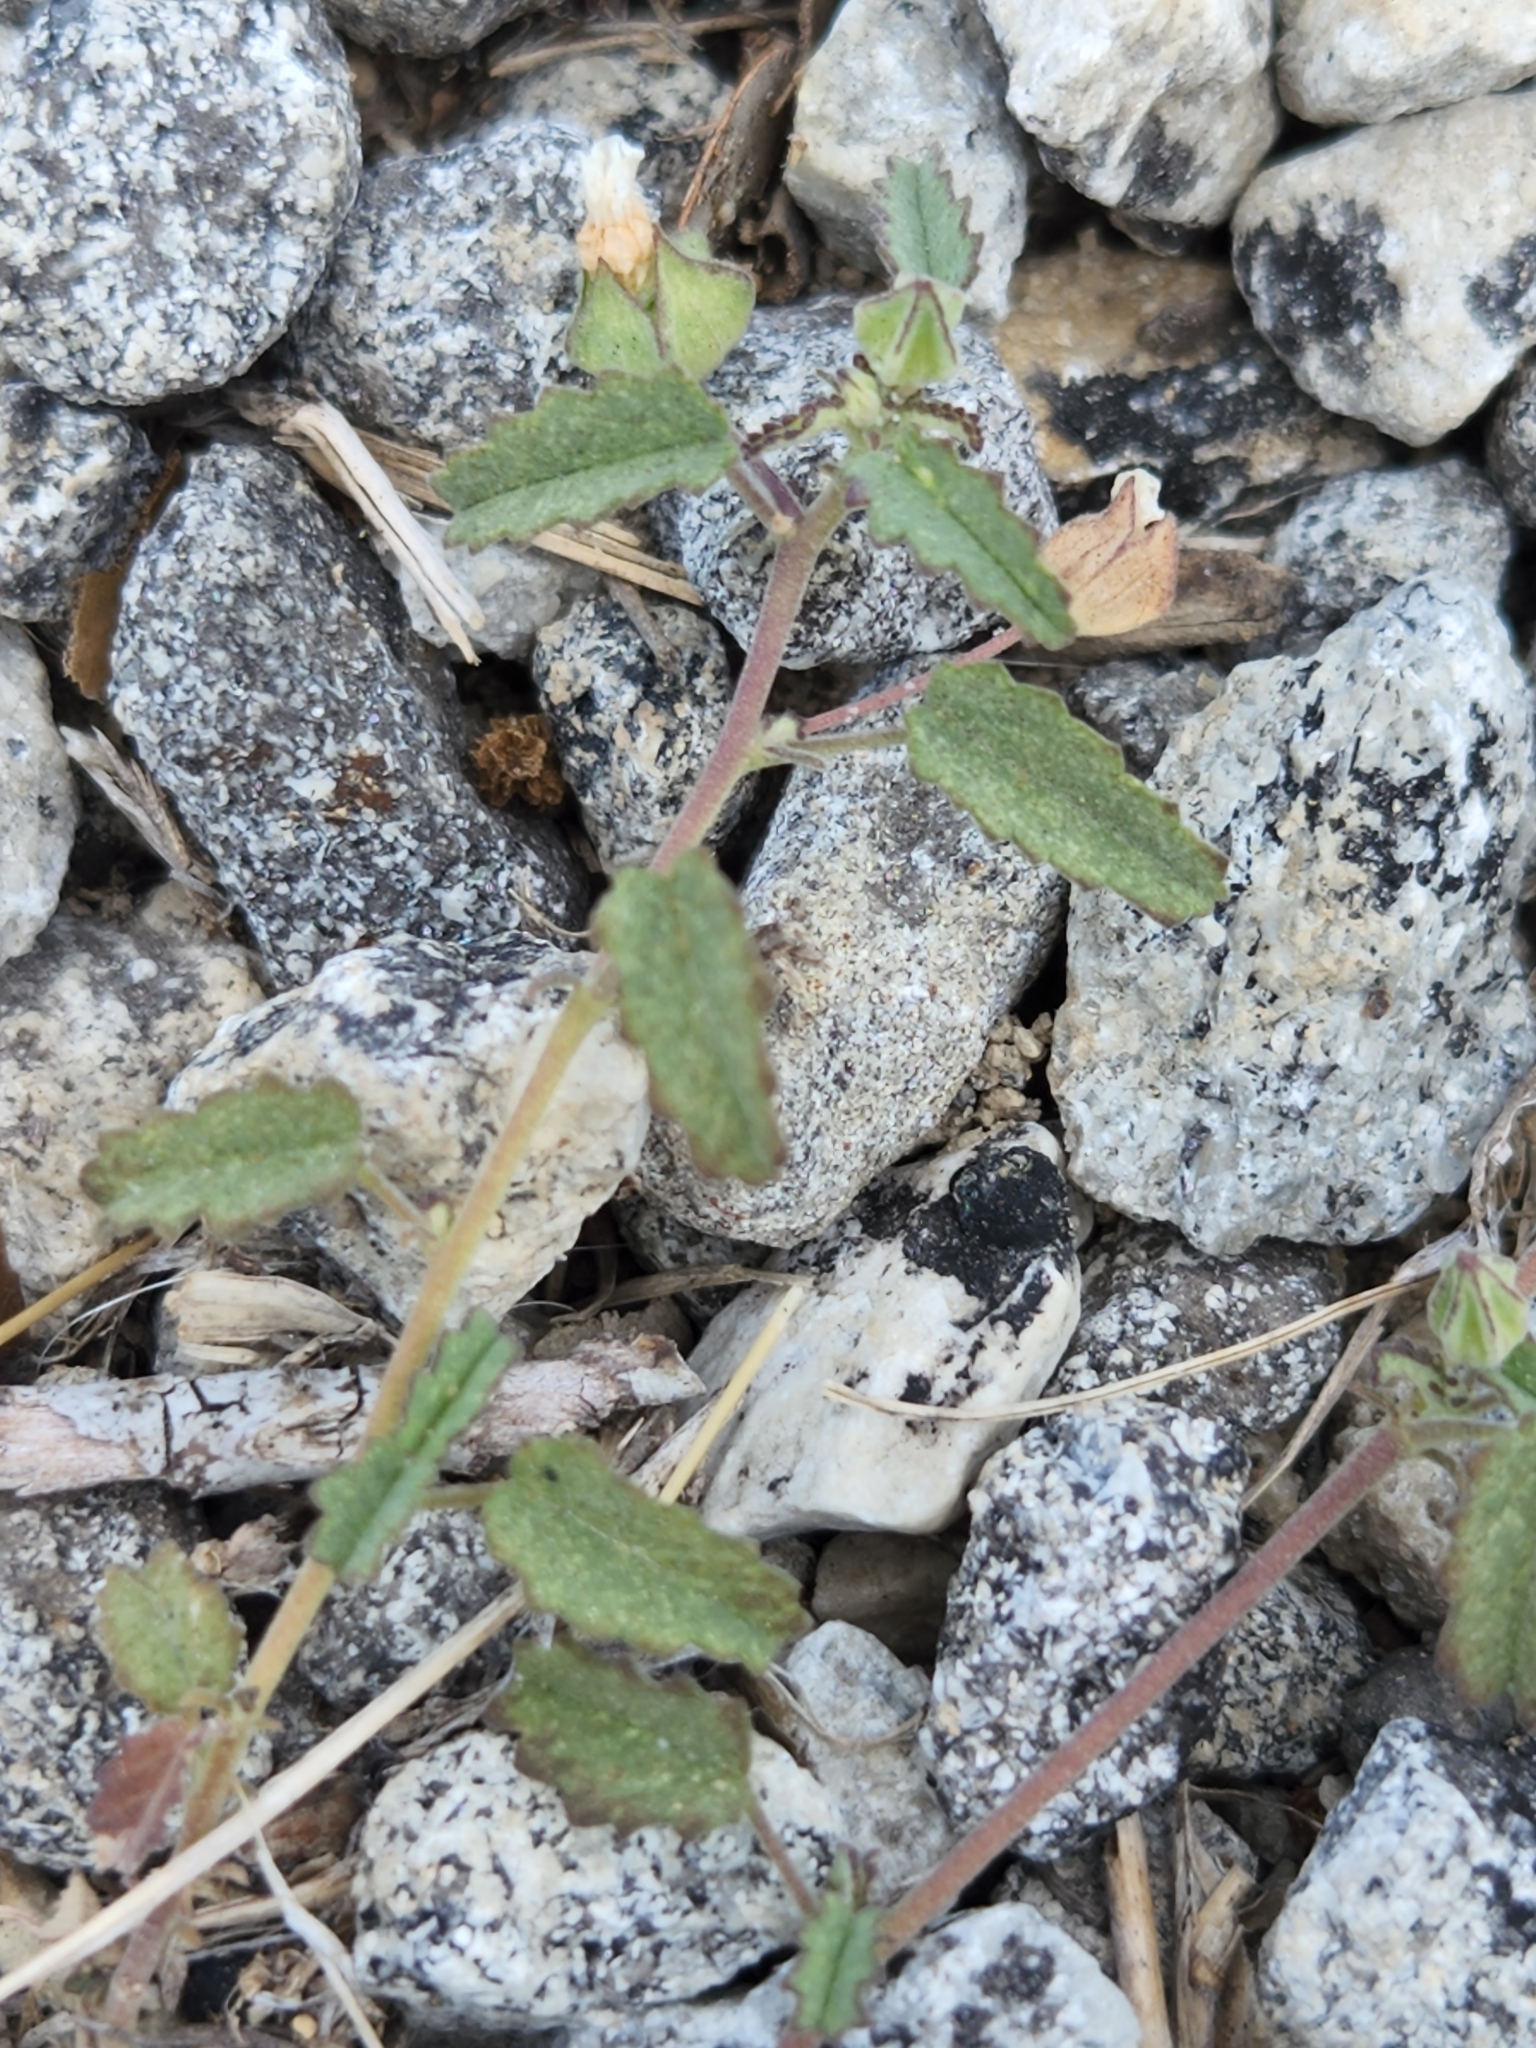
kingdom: Plantae
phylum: Tracheophyta
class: Magnoliopsida
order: Malvales
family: Malvaceae
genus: Sida
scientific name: Sida abutilifolia
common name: Spreading fanpetals
